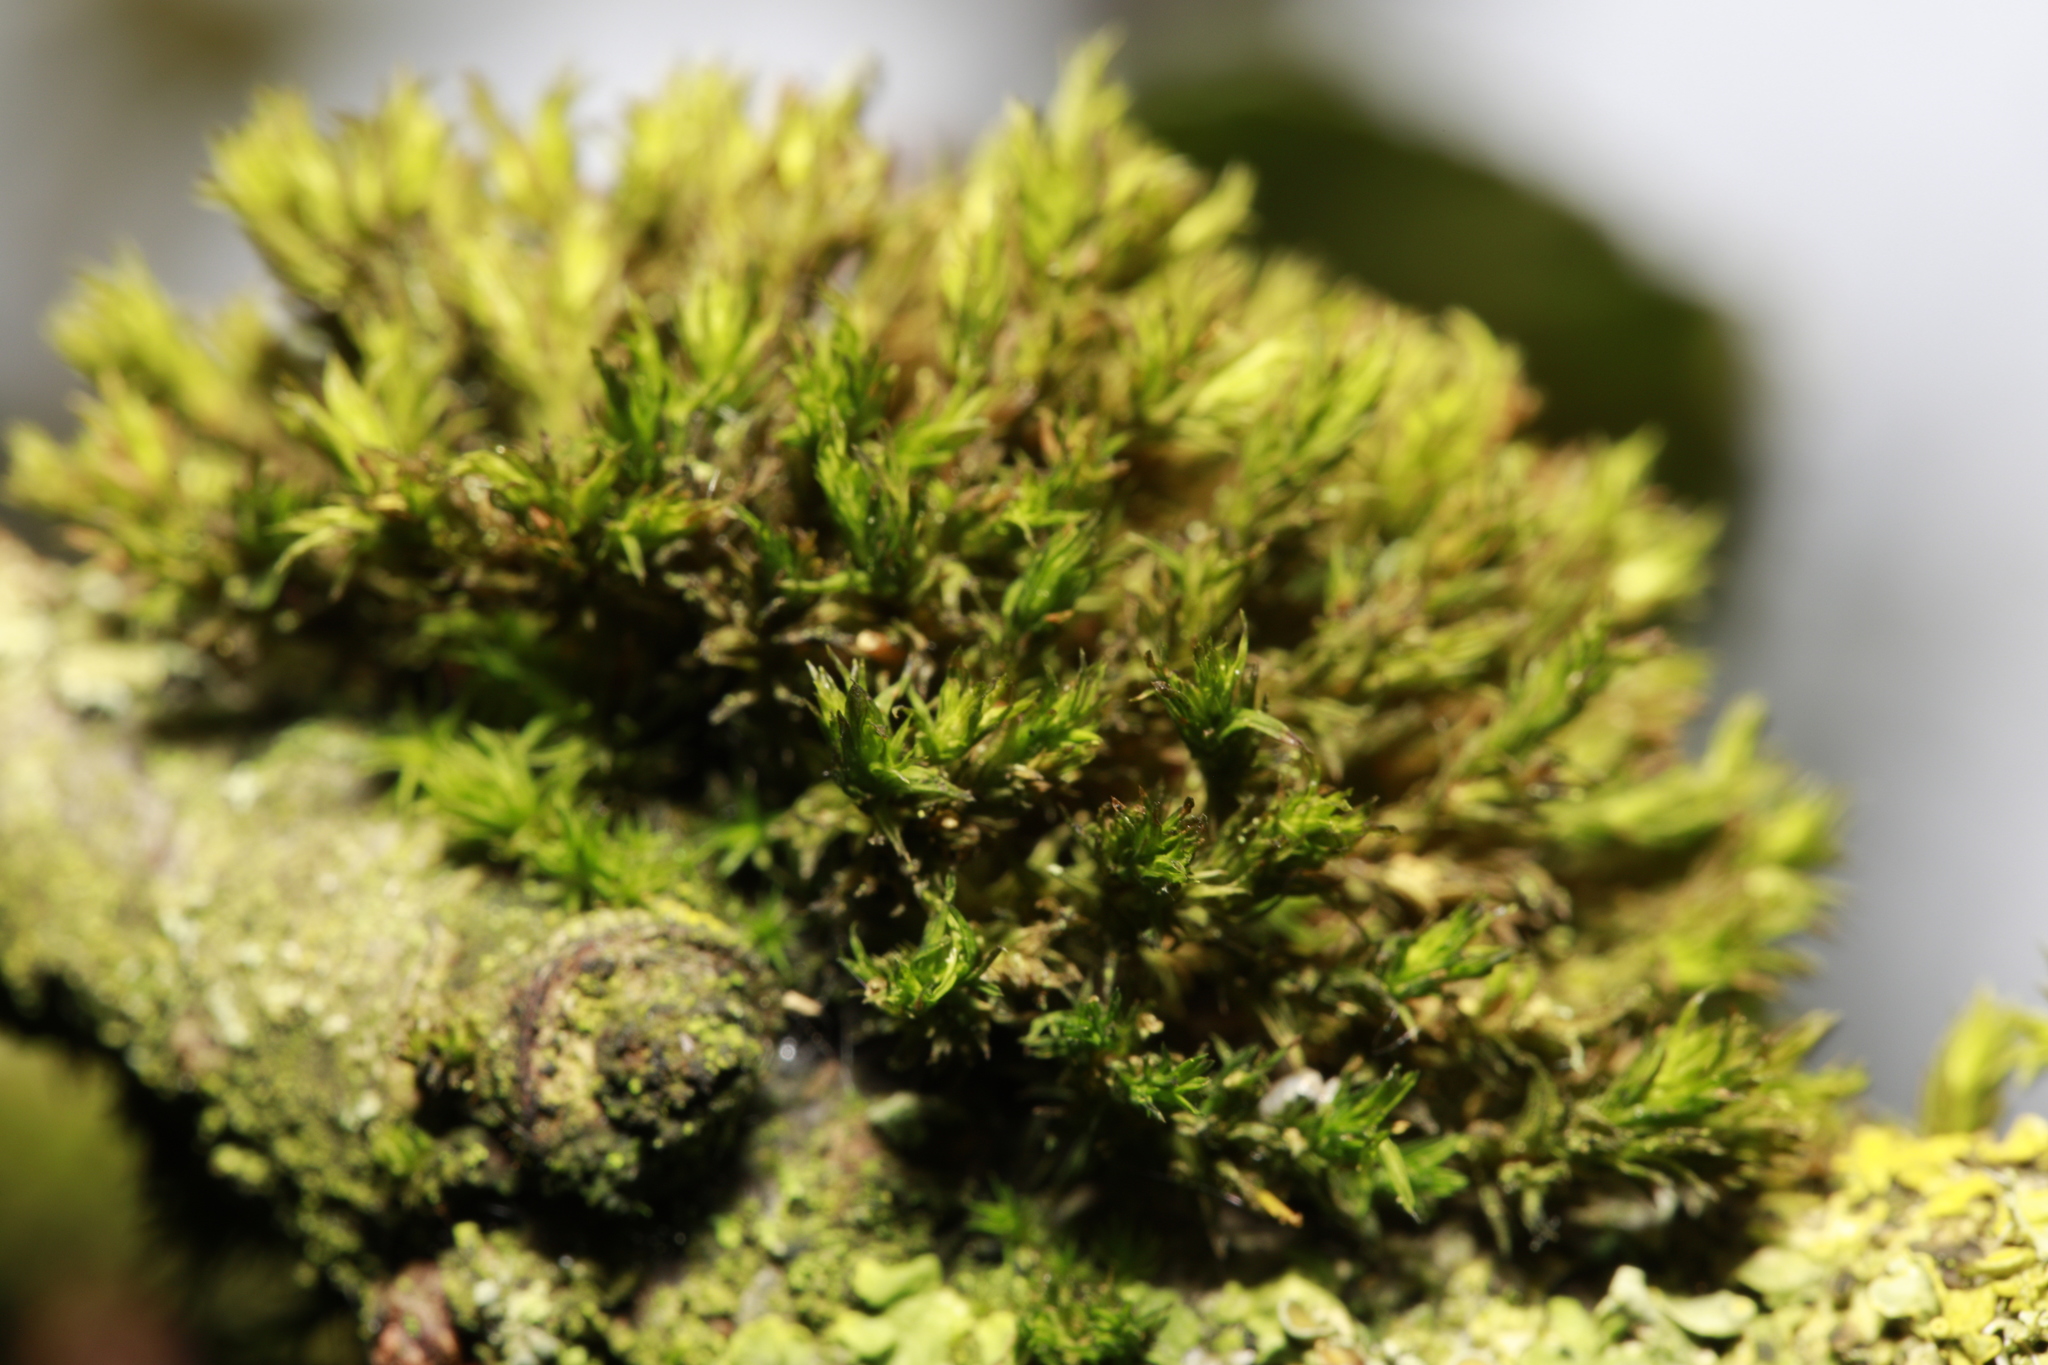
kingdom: Plantae
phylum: Bryophyta
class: Bryopsida
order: Orthotrichales
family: Orthotrichaceae
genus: Lewinskya
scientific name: Lewinskya affinis
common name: Wood bristle-moss
